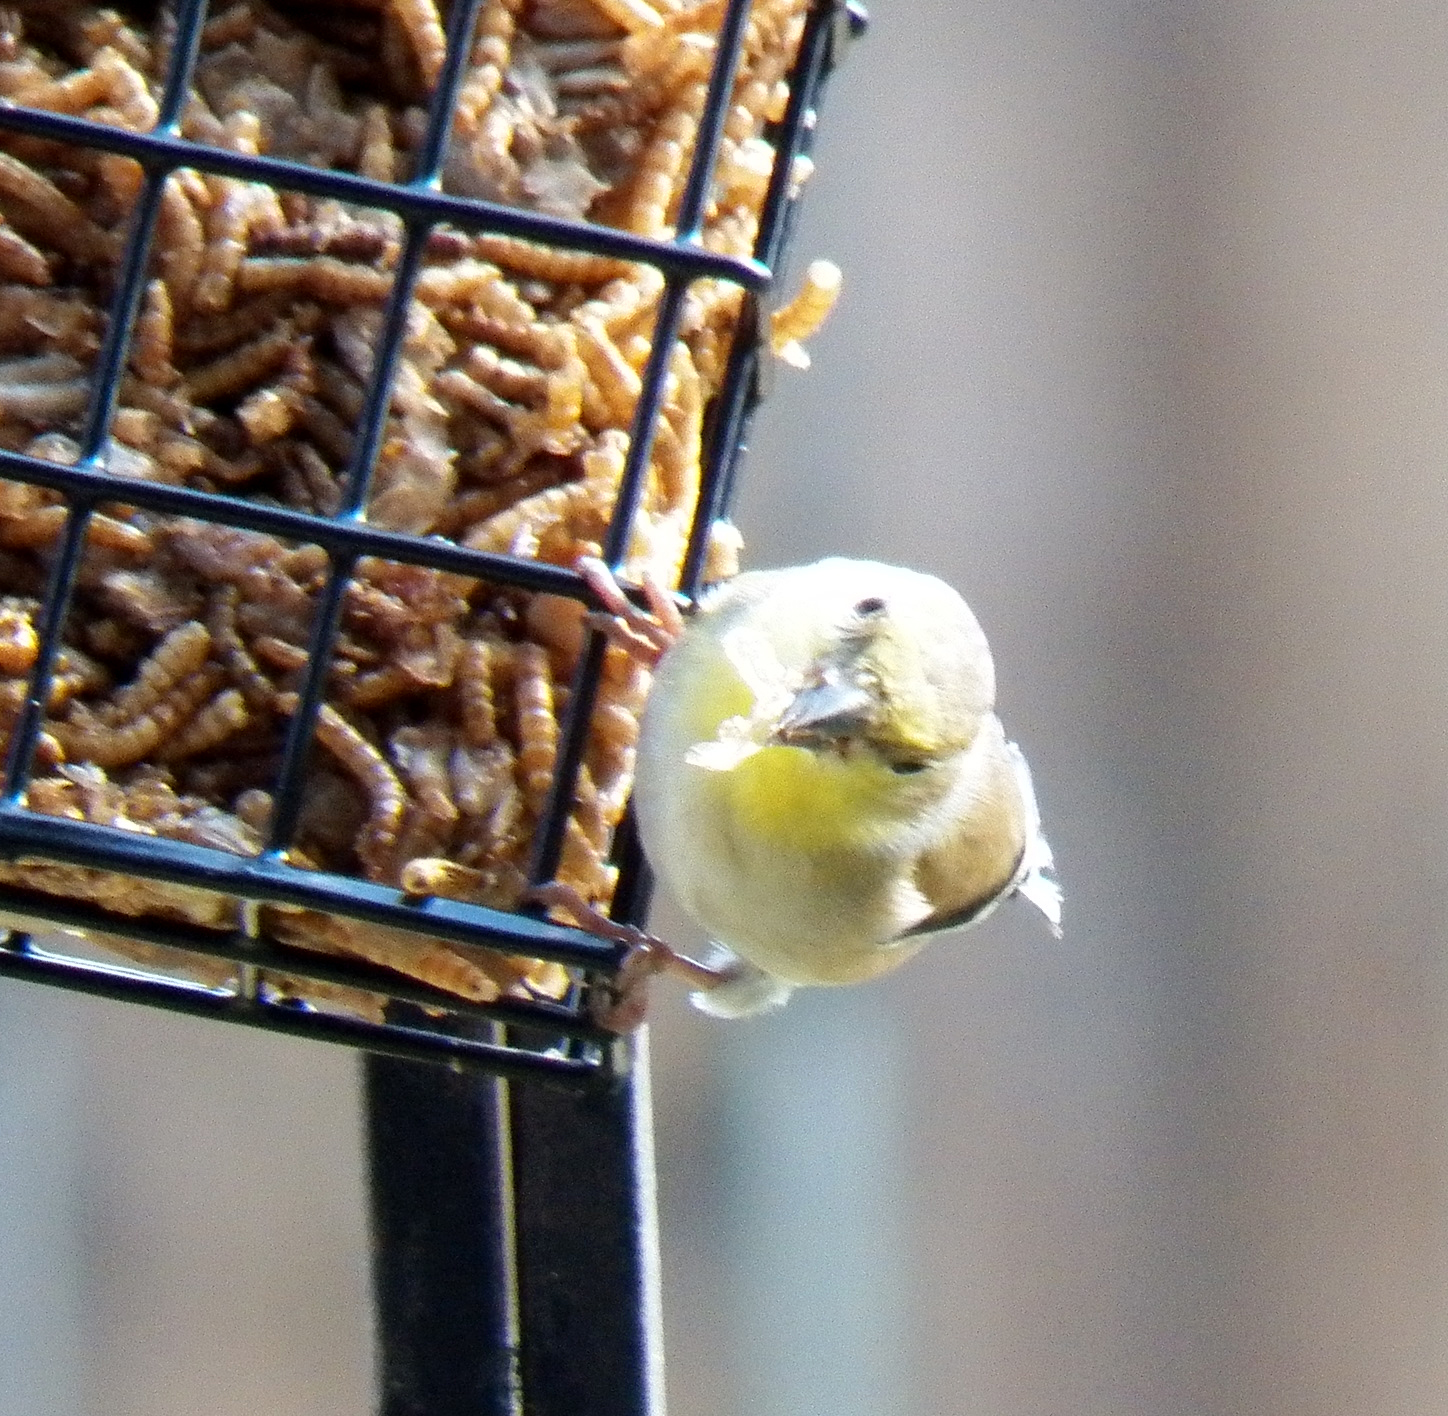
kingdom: Animalia
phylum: Chordata
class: Aves
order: Passeriformes
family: Fringillidae
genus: Spinus
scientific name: Spinus tristis
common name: American goldfinch
